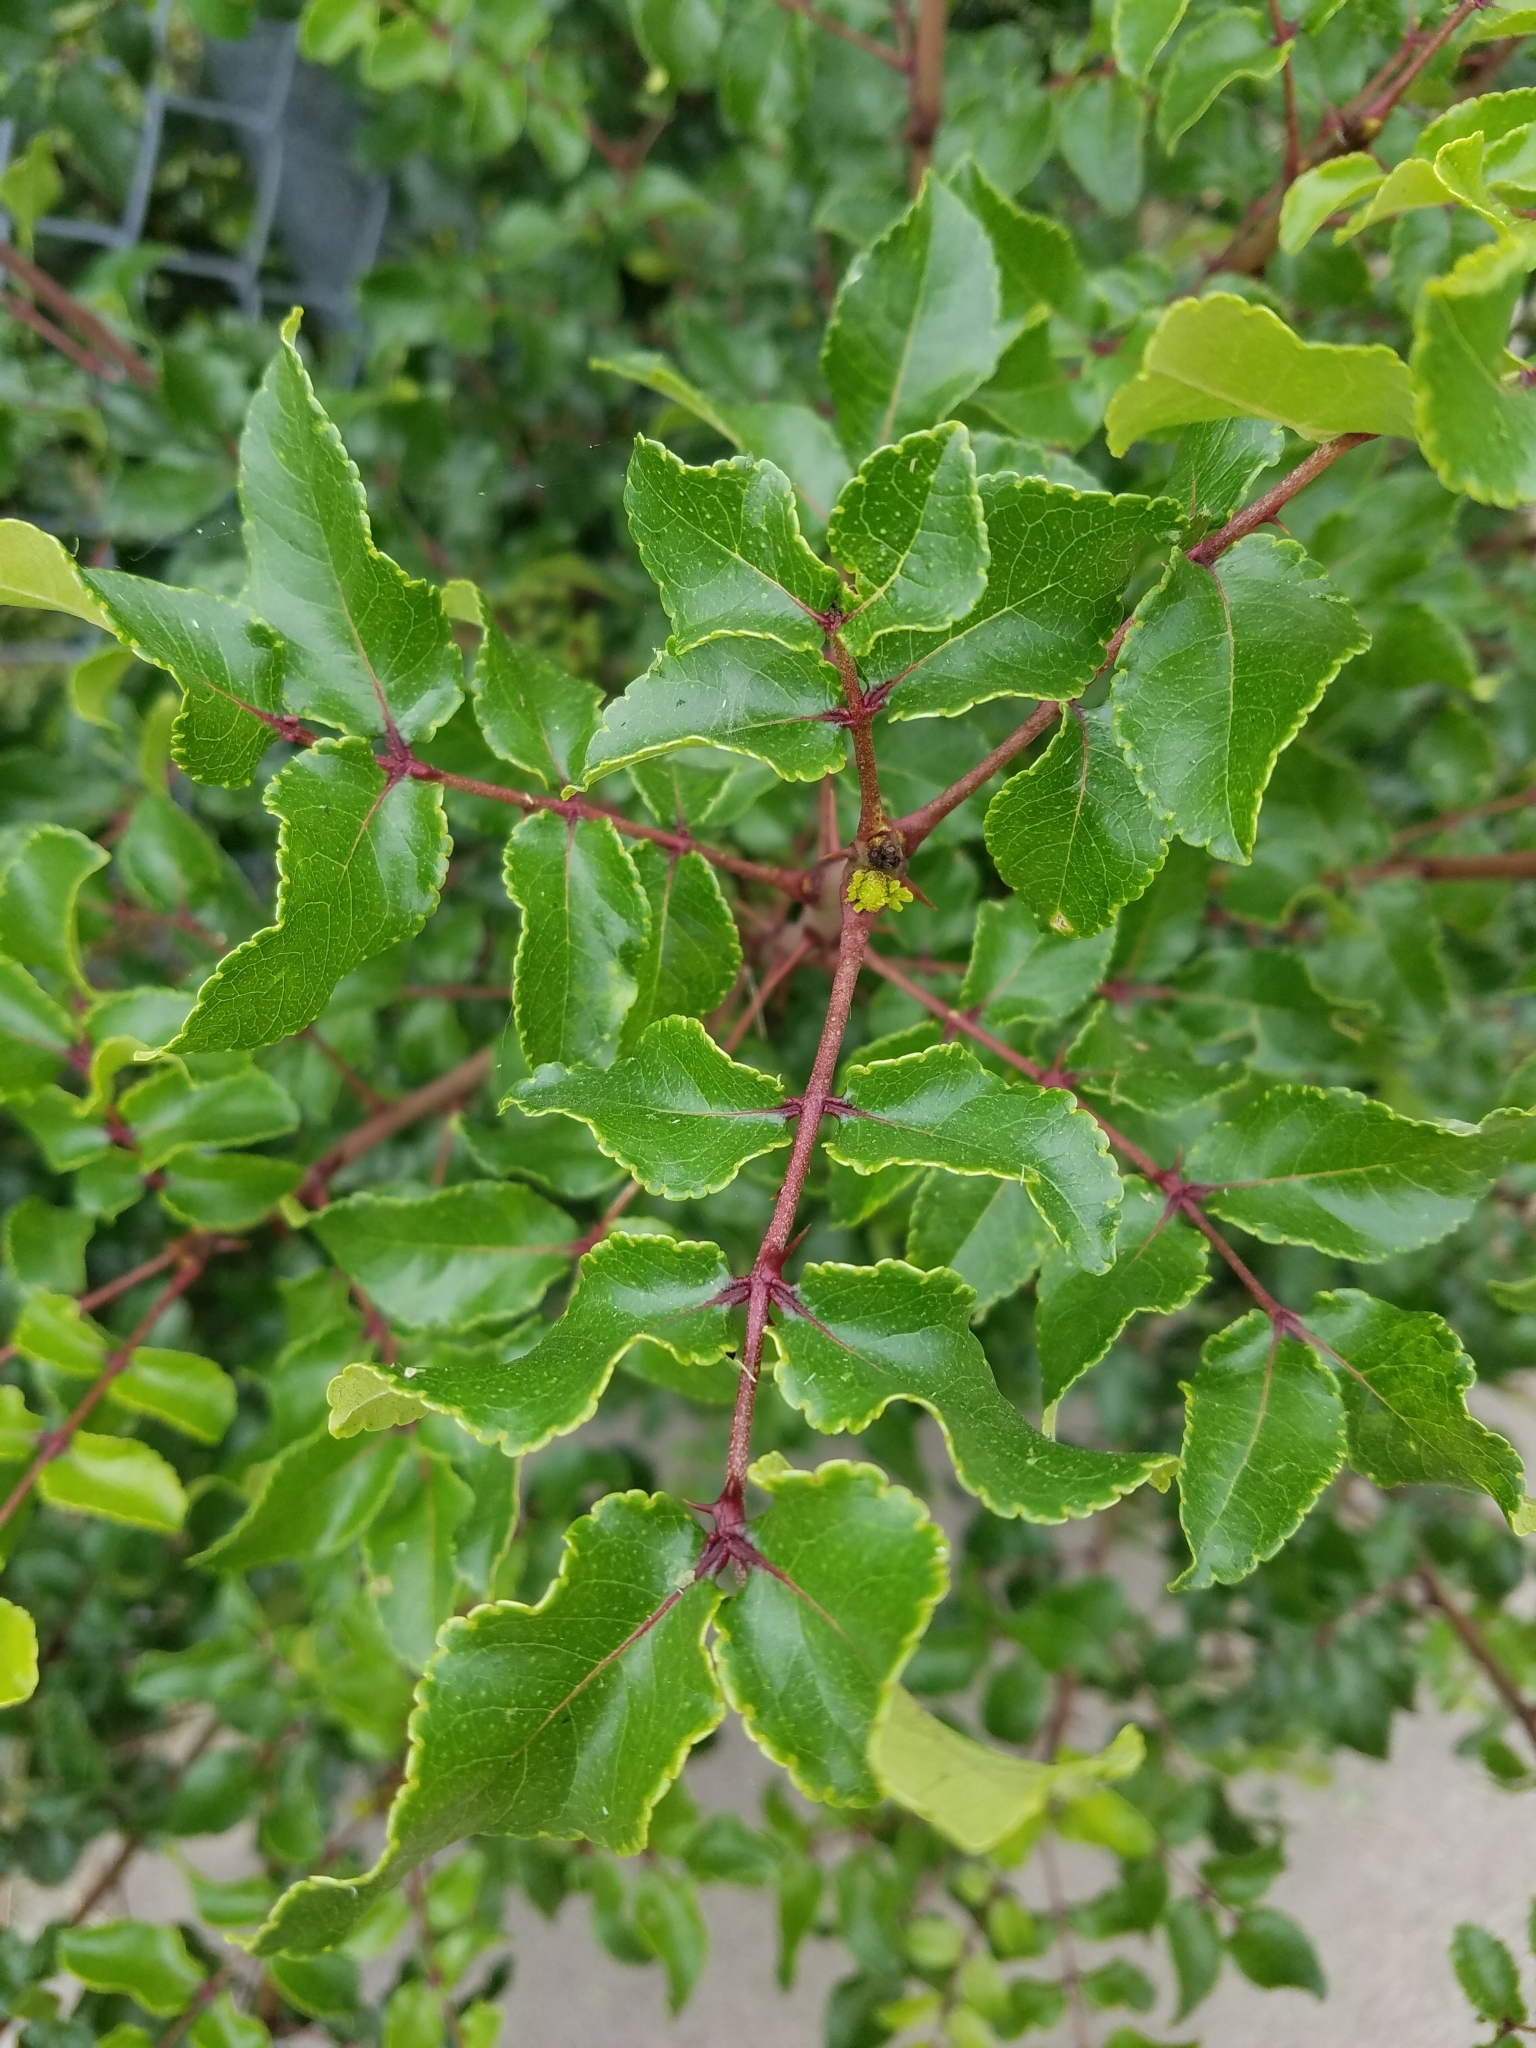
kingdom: Plantae
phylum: Tracheophyta
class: Magnoliopsida
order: Sapindales
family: Rutaceae
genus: Zanthoxylum
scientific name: Zanthoxylum clava-herculis
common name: Hercules'-club
